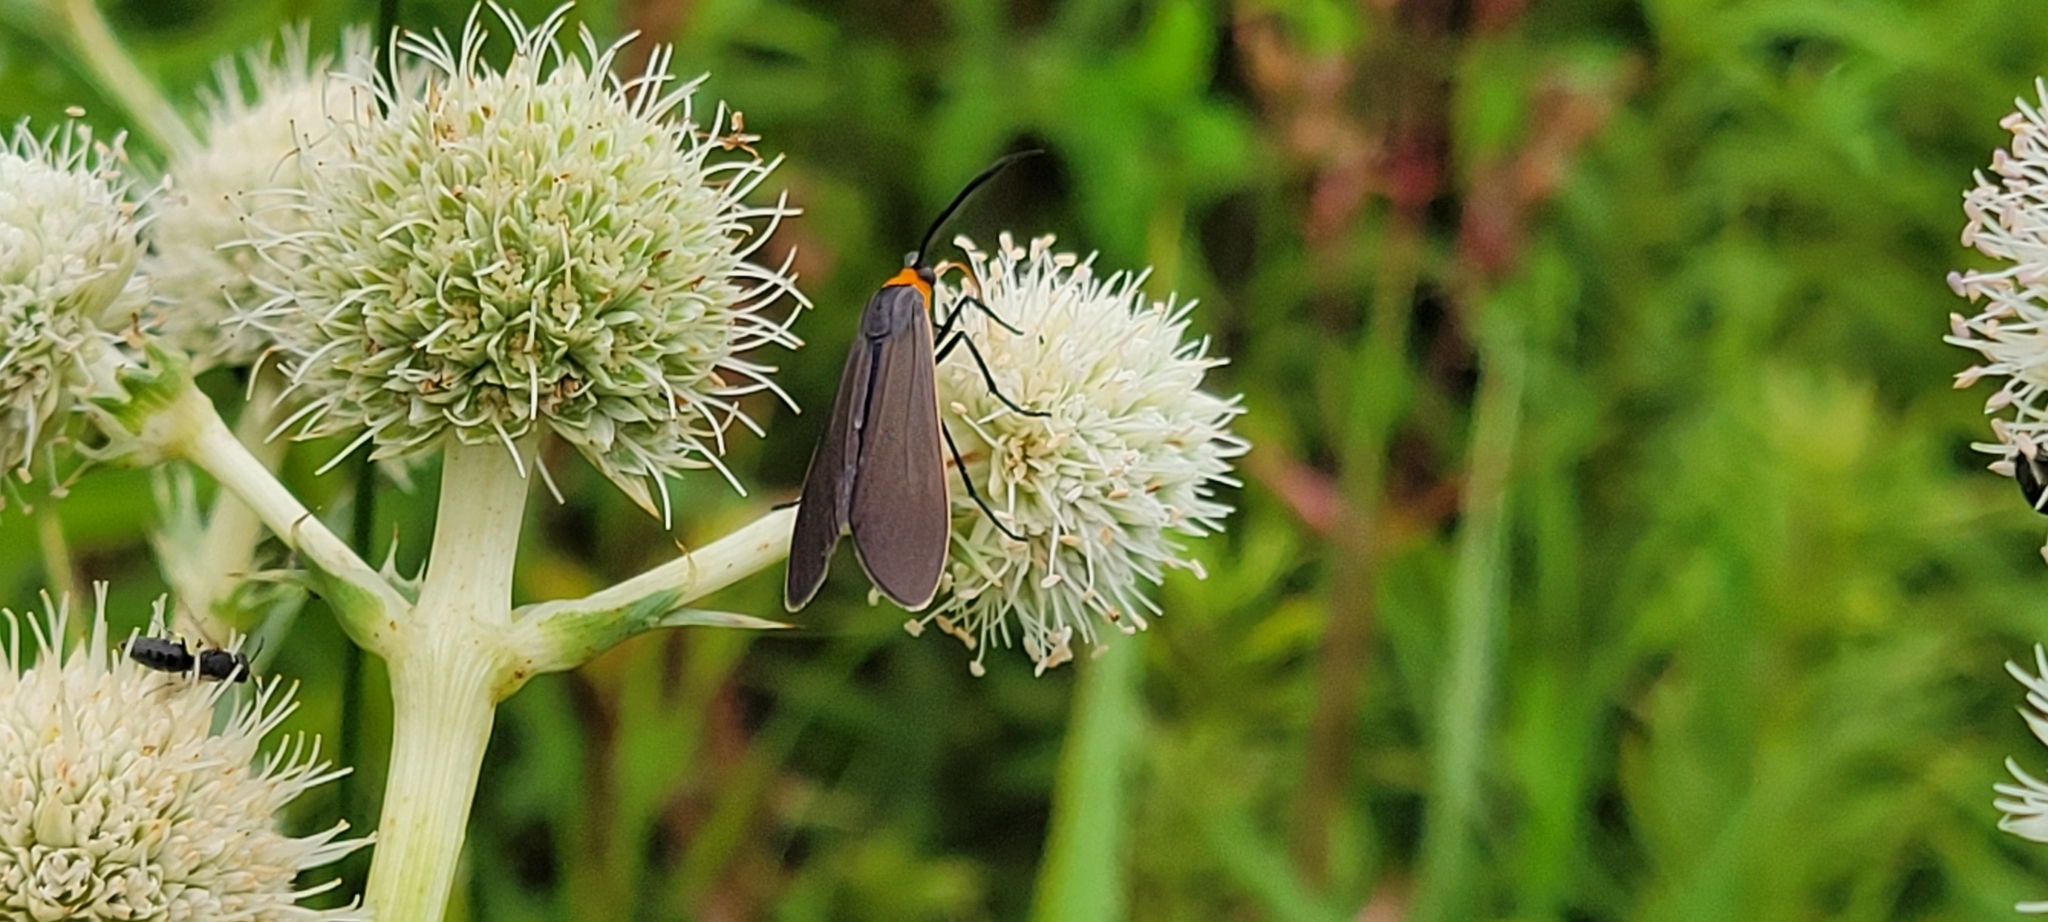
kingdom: Animalia
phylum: Arthropoda
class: Insecta
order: Lepidoptera
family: Erebidae
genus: Cisseps
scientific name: Cisseps fulvicollis
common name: Yellow-collared scape moth
